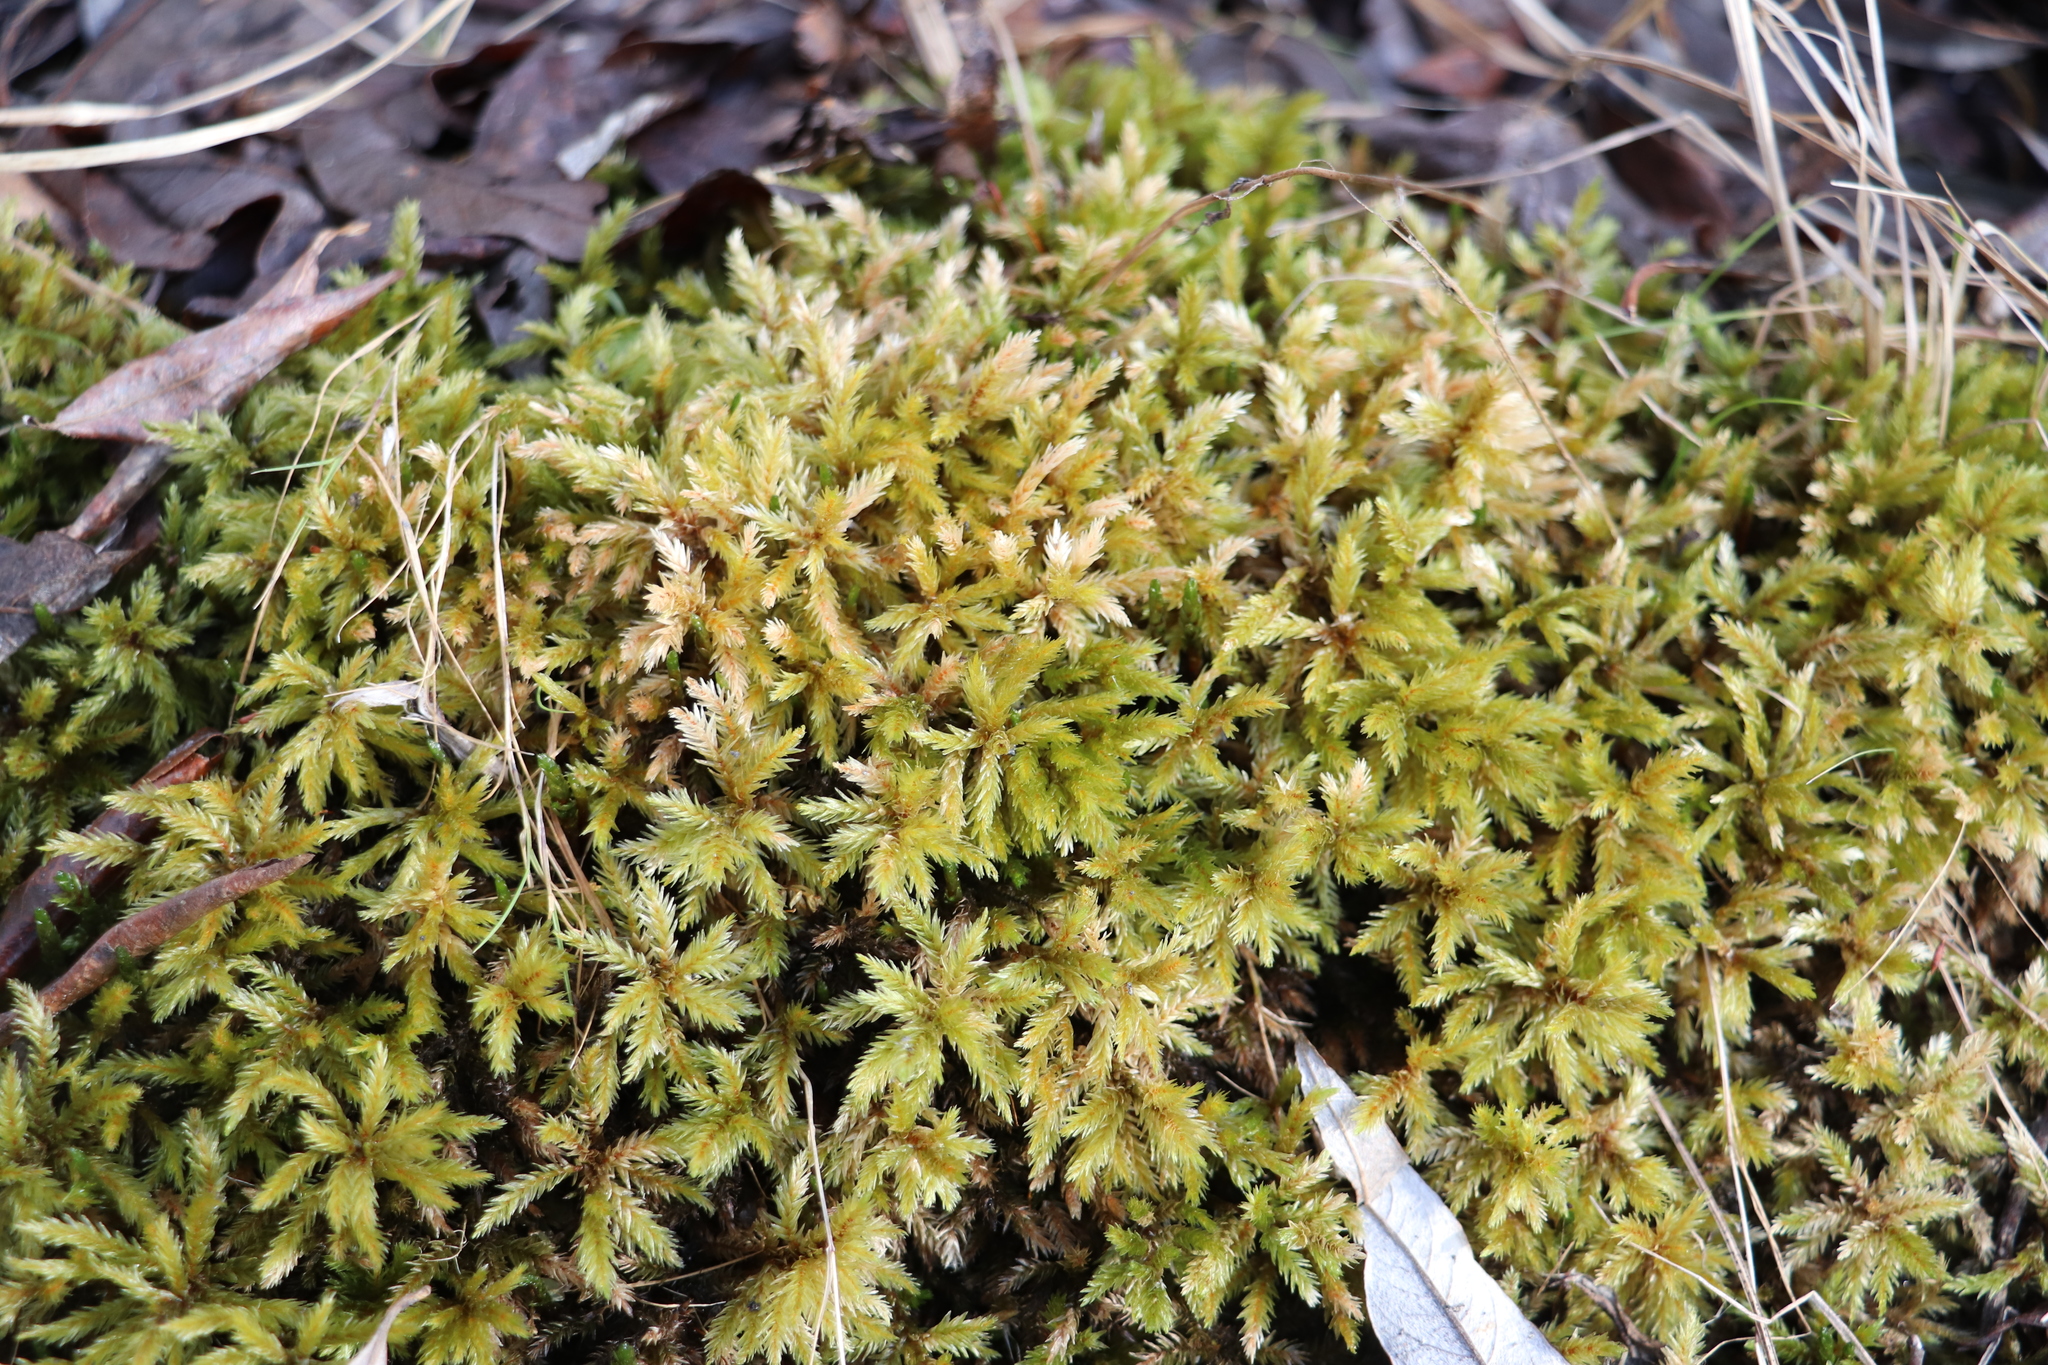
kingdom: Plantae
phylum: Bryophyta
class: Bryopsida
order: Hypnales
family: Climaciaceae
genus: Climacium
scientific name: Climacium dendroides
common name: Northern tree moss
